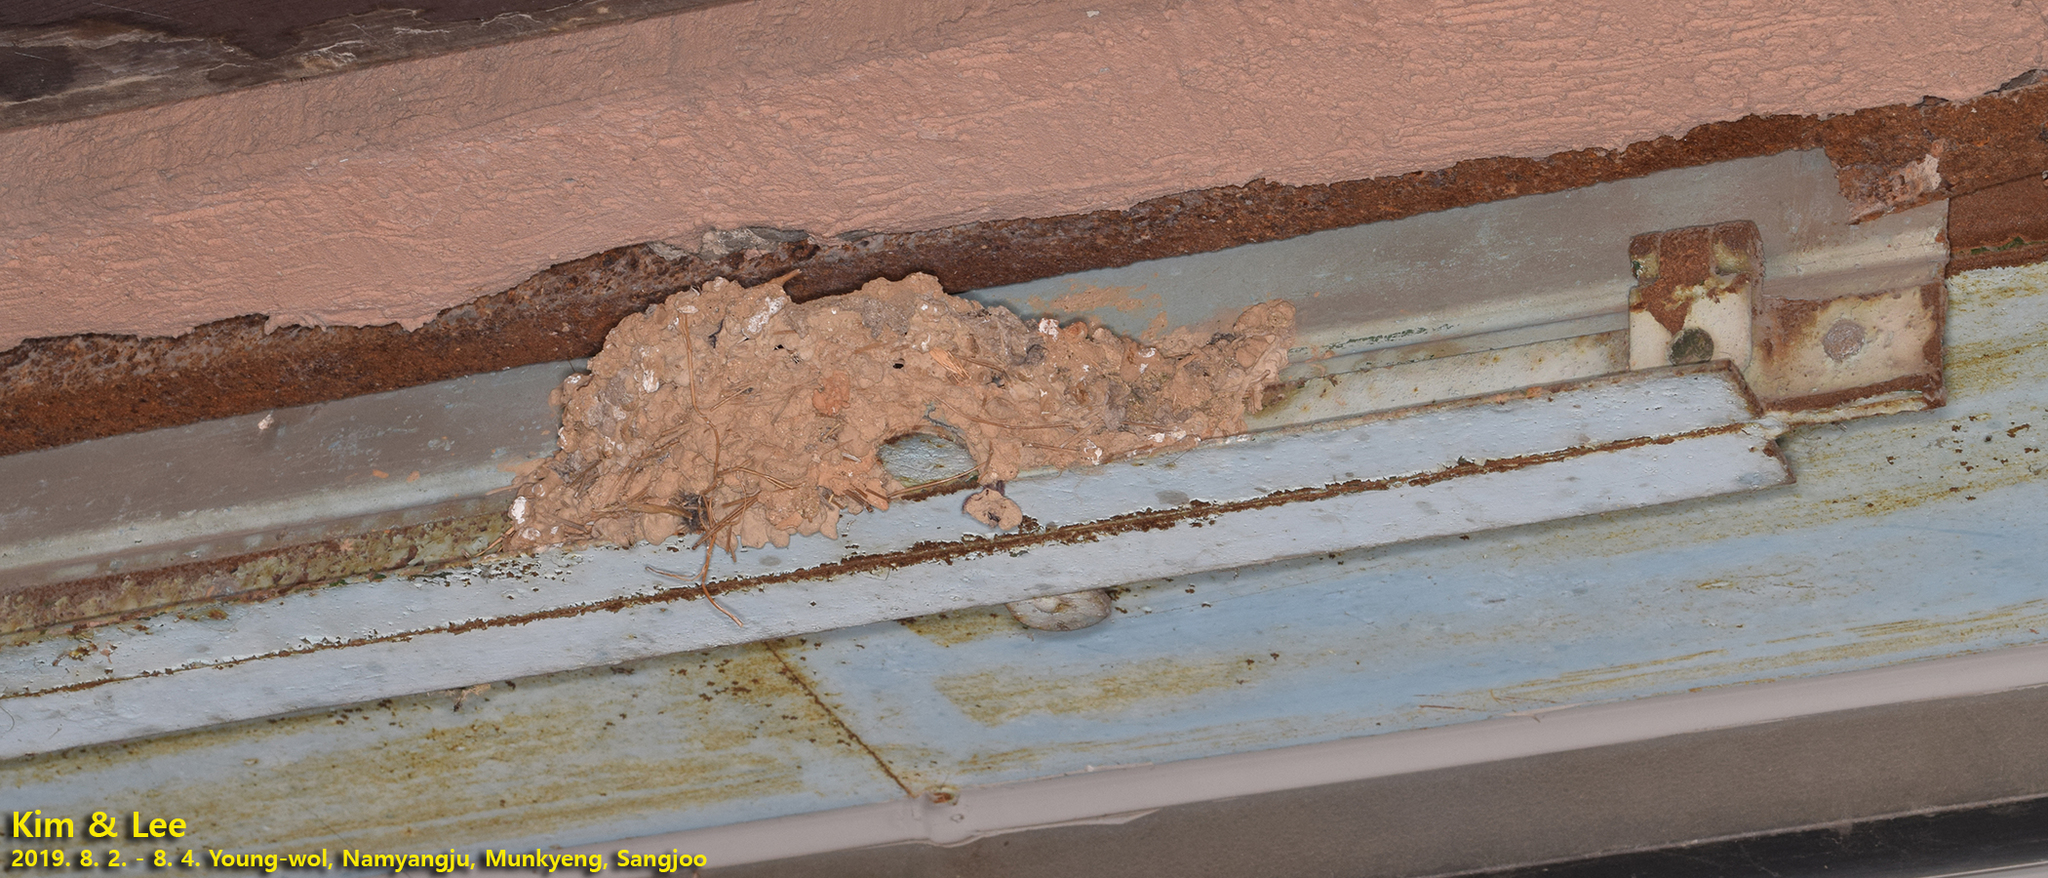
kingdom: Animalia
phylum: Chordata
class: Aves
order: Passeriformes
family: Hirundinidae
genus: Hirundo
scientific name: Hirundo rustica
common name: Barn swallow
